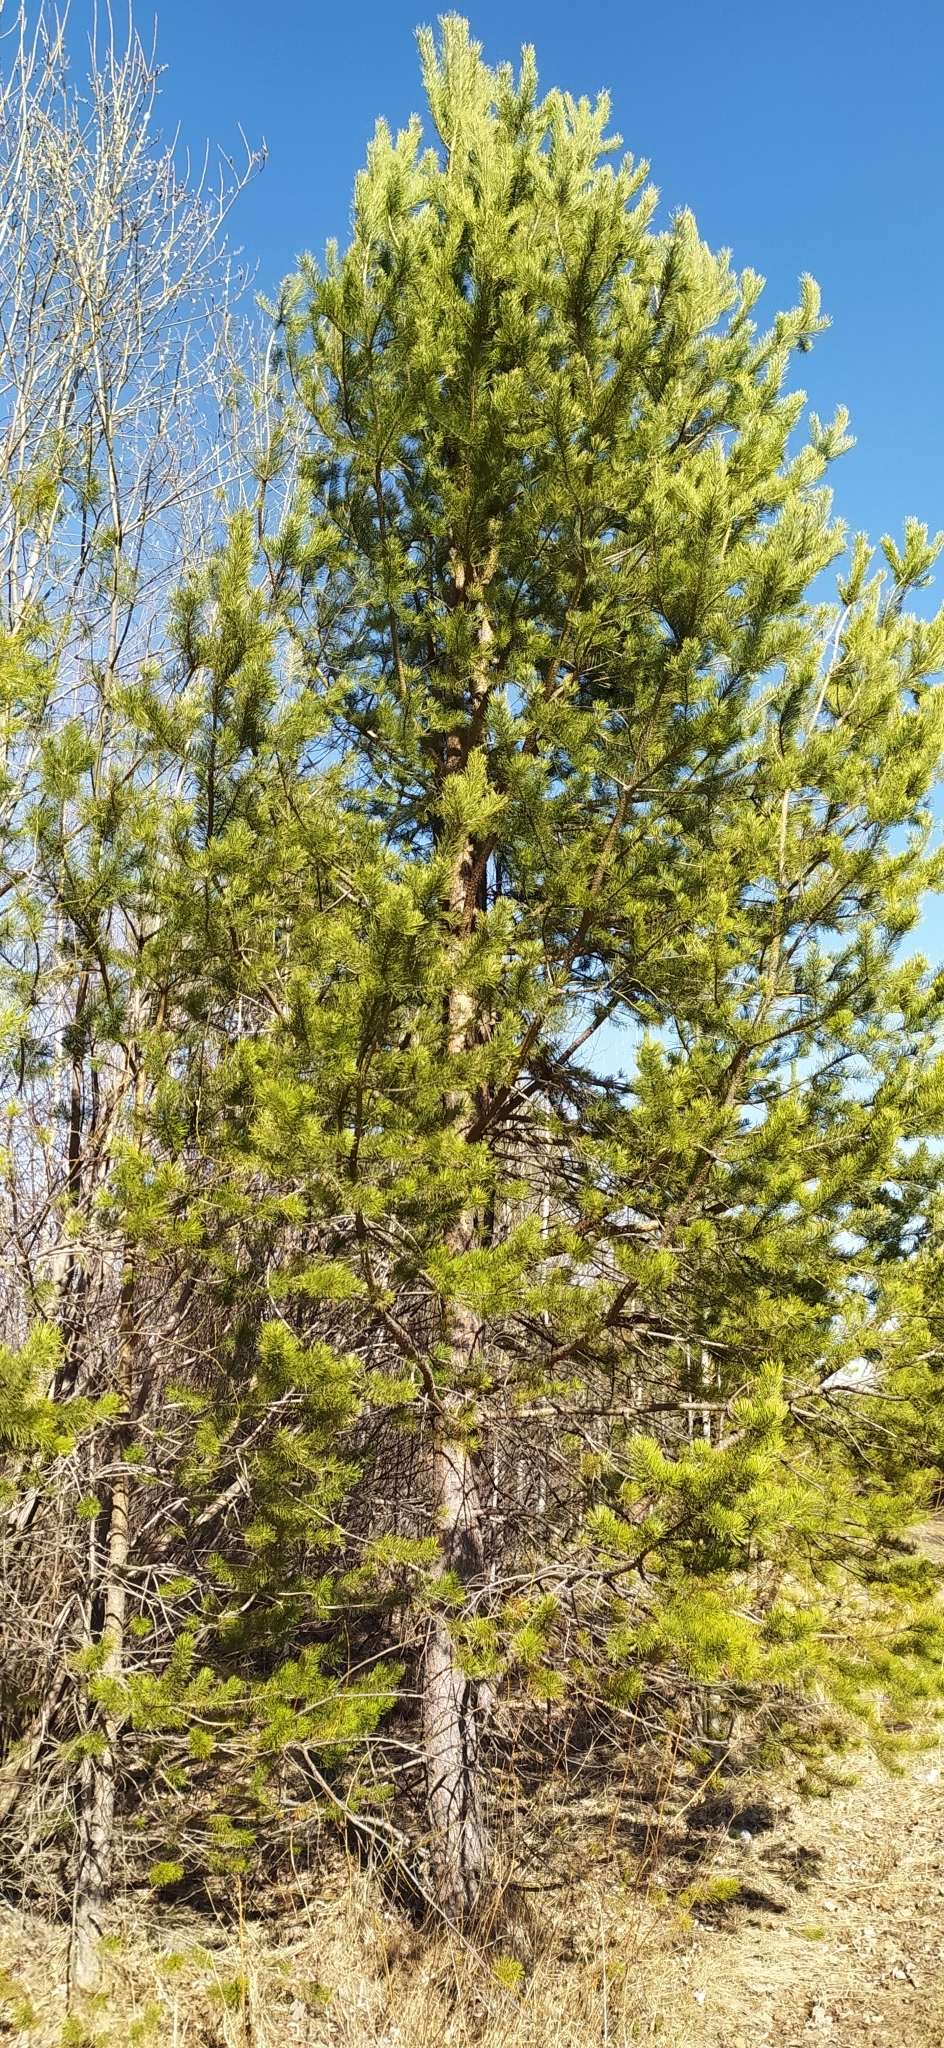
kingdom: Plantae
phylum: Tracheophyta
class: Pinopsida
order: Pinales
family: Pinaceae
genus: Pinus
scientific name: Pinus sylvestris
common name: Scots pine
